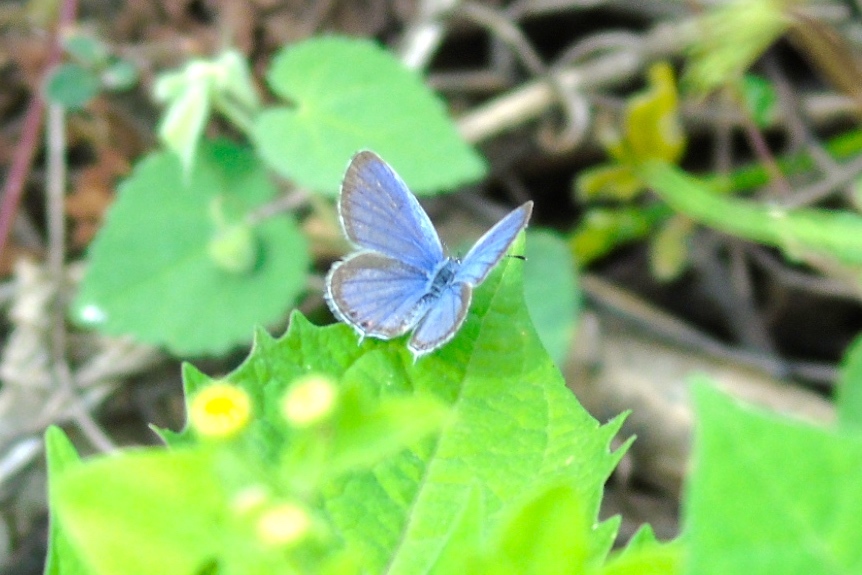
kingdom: Animalia
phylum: Arthropoda
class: Insecta
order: Lepidoptera
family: Lycaenidae
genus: Elkalyce
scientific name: Elkalyce comyntas
